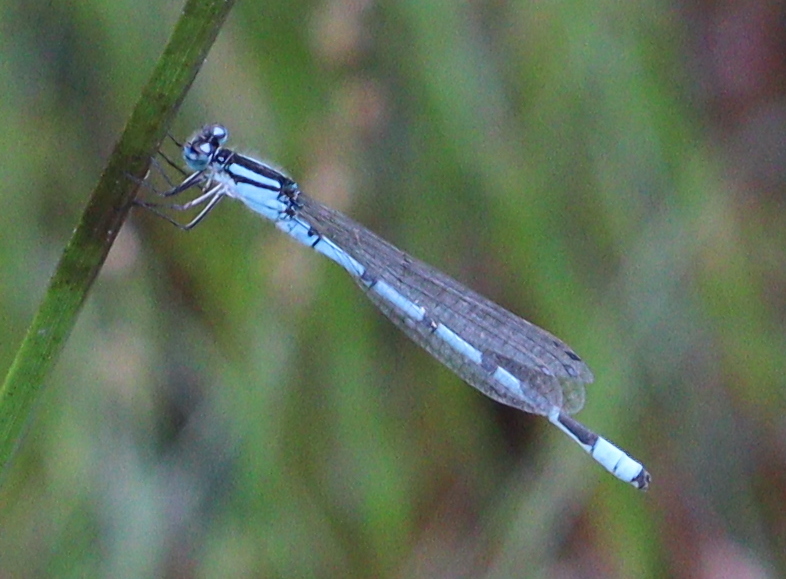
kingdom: Animalia
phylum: Arthropoda
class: Insecta
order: Odonata
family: Coenagrionidae
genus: Enallagma
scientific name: Enallagma cyathigerum
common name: Common blue damselfly
